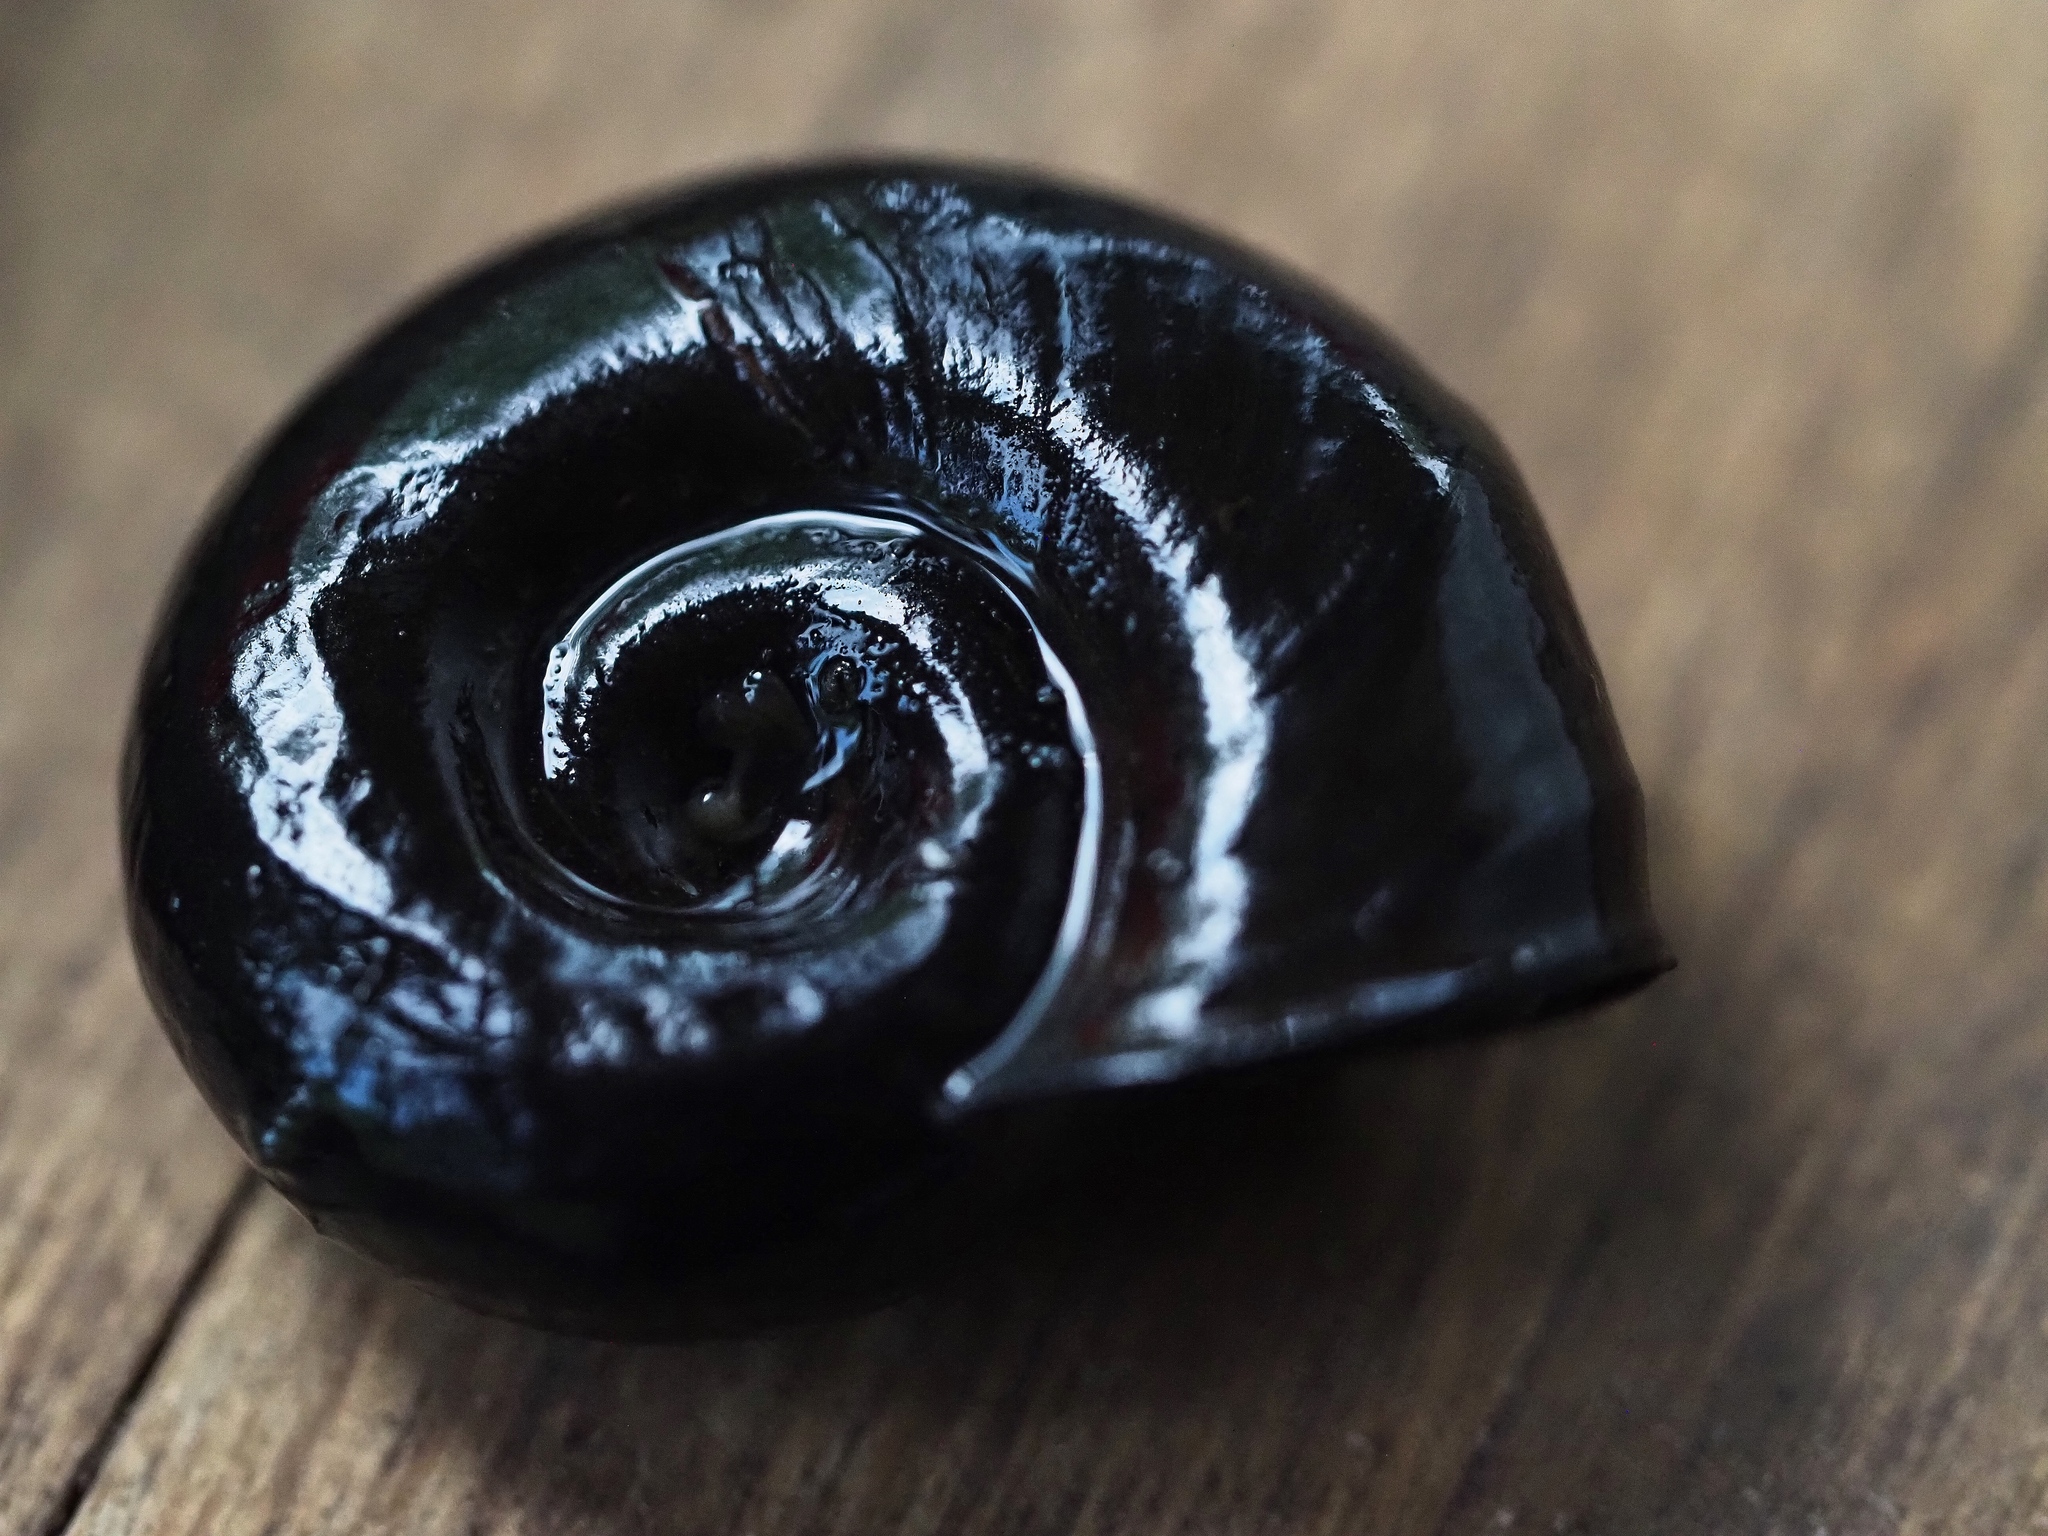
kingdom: Animalia
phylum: Mollusca
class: Gastropoda
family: Planorbidae
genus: Planorbarius
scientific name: Planorbarius corneus
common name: Great ramshorn
